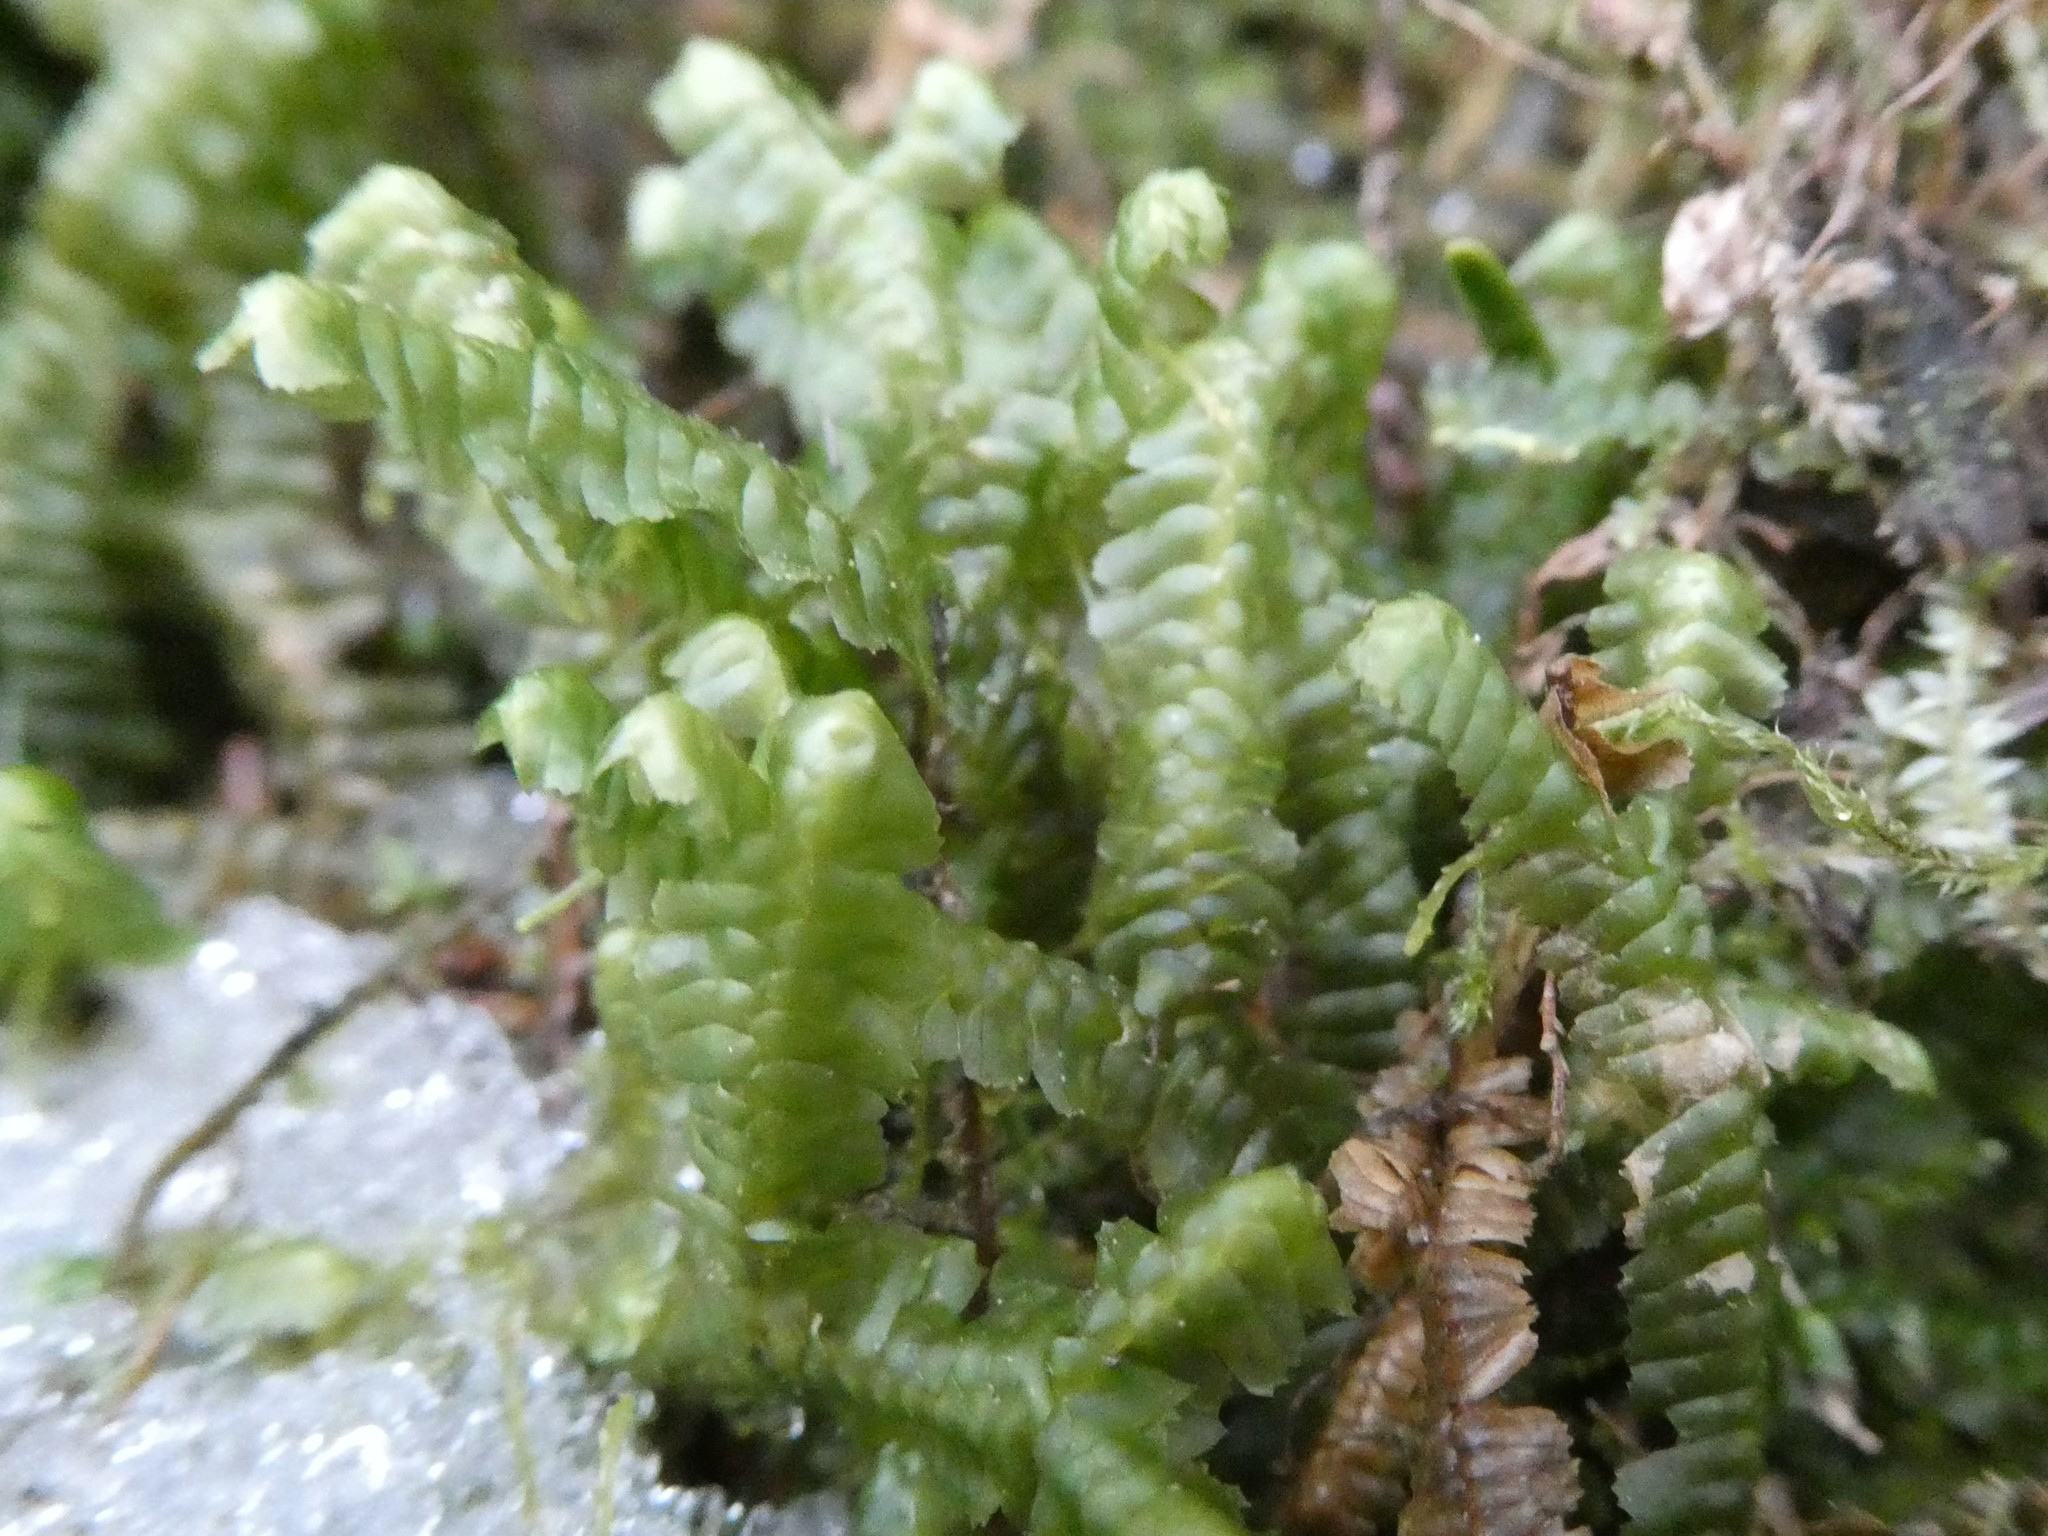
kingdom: Plantae
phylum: Marchantiophyta
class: Jungermanniopsida
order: Jungermanniales
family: Lepidoziaceae
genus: Bazzania
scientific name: Bazzania trilobata
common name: Three-lobed whipwort
